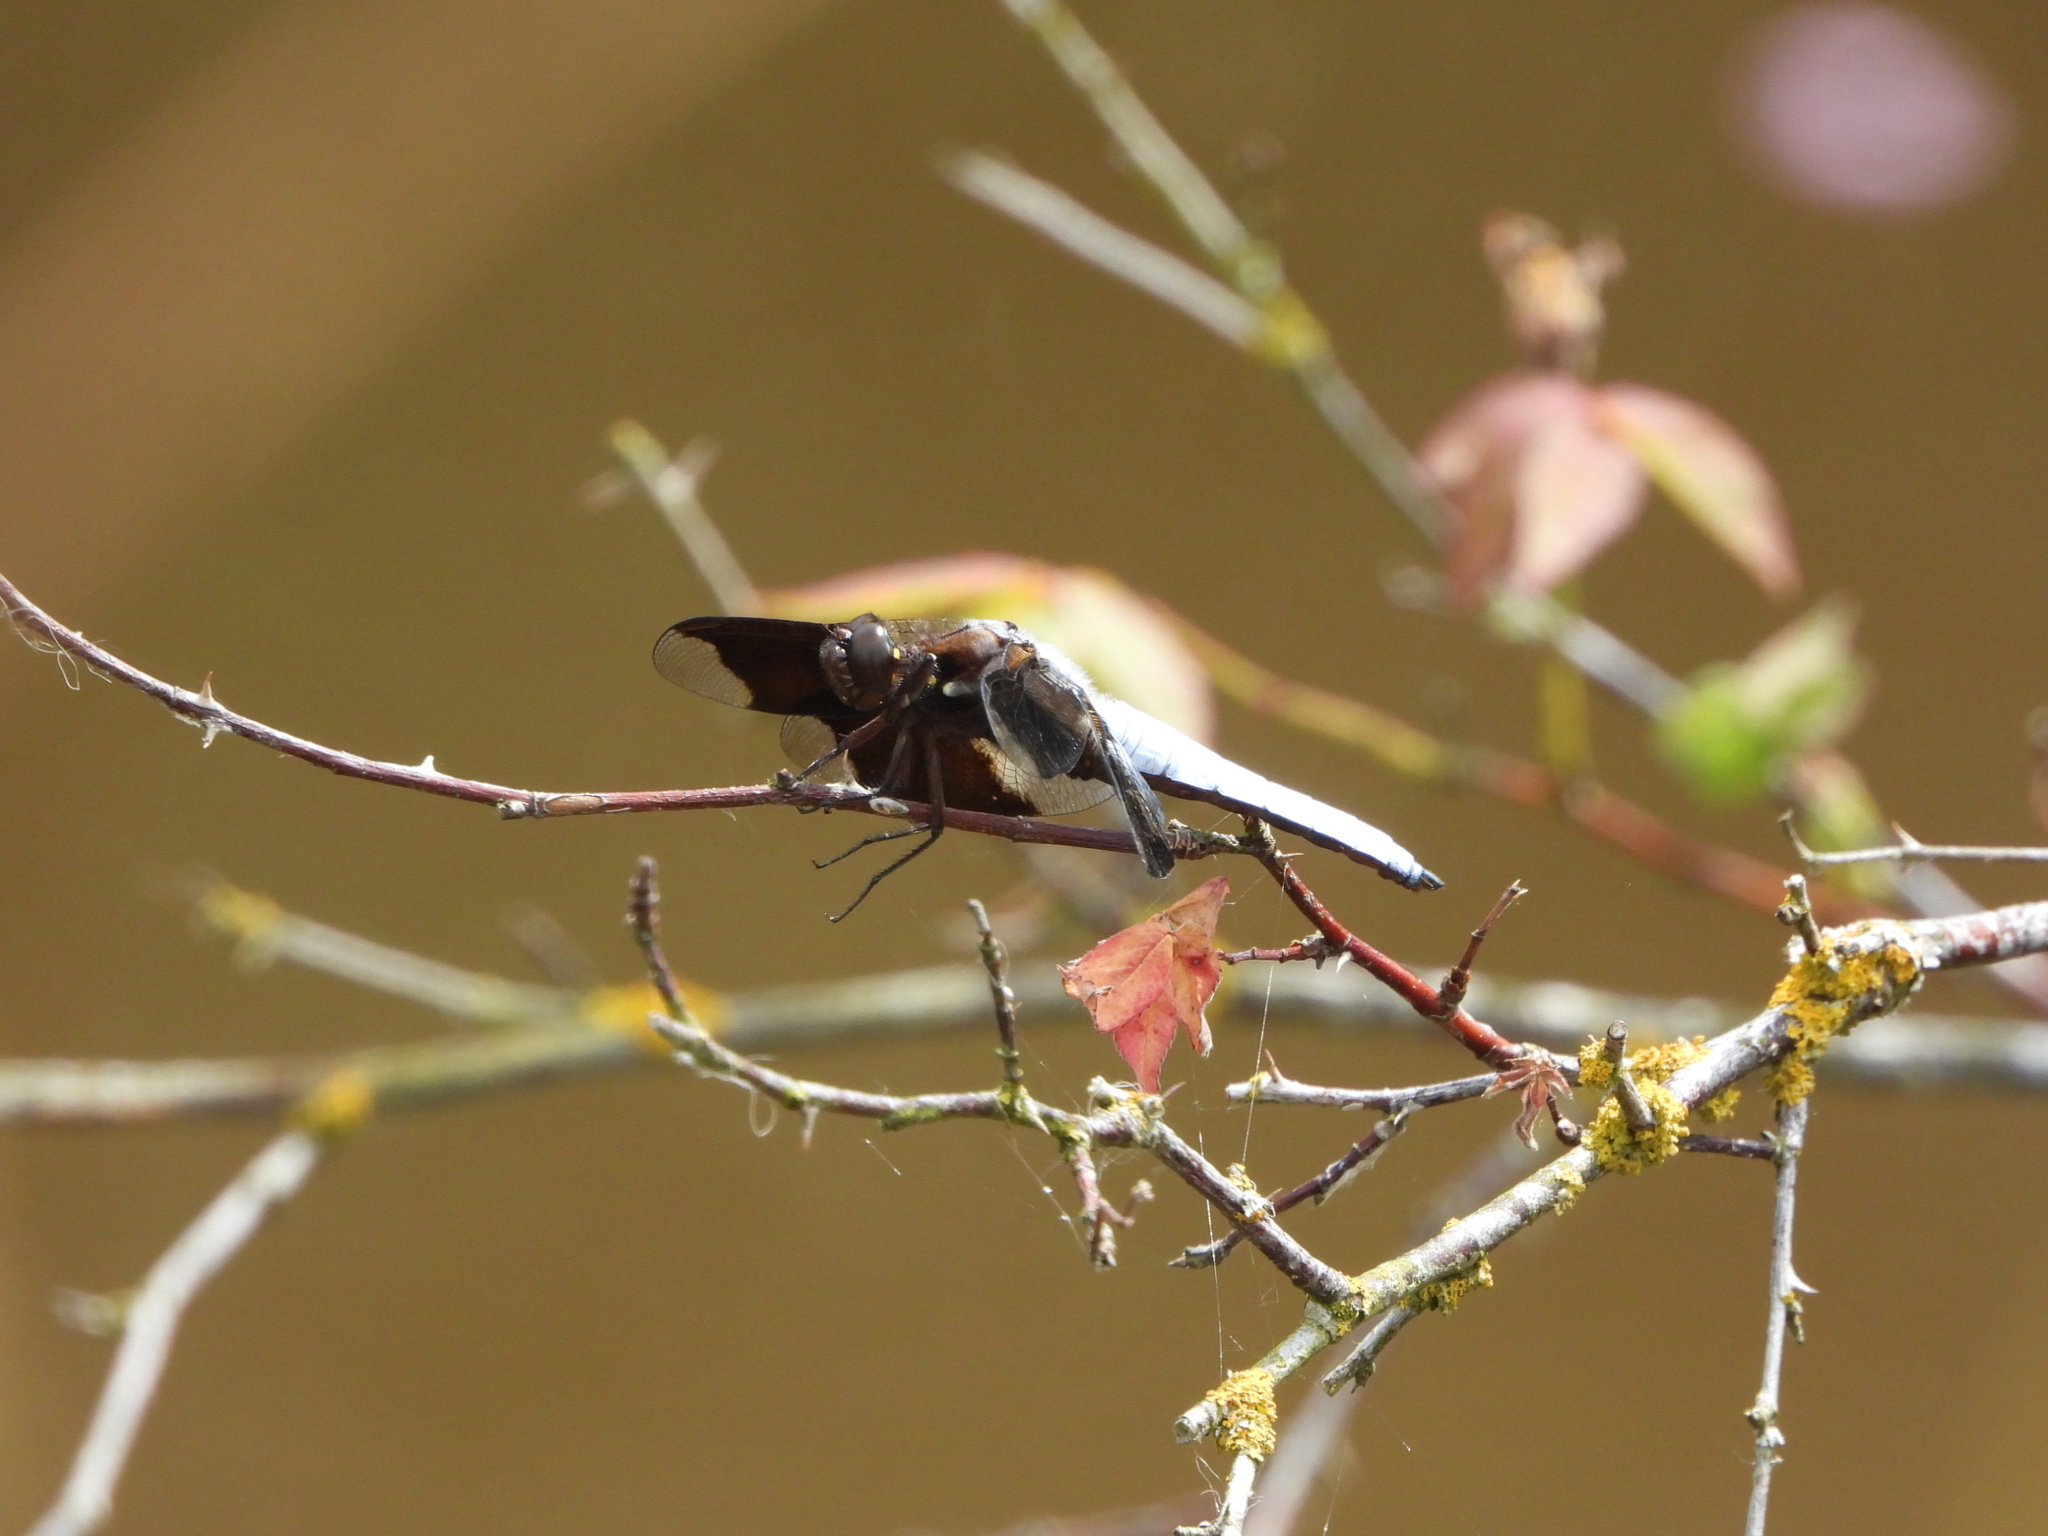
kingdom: Animalia
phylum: Arthropoda
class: Insecta
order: Odonata
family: Libellulidae
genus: Plathemis
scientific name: Plathemis lydia
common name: Common whitetail
